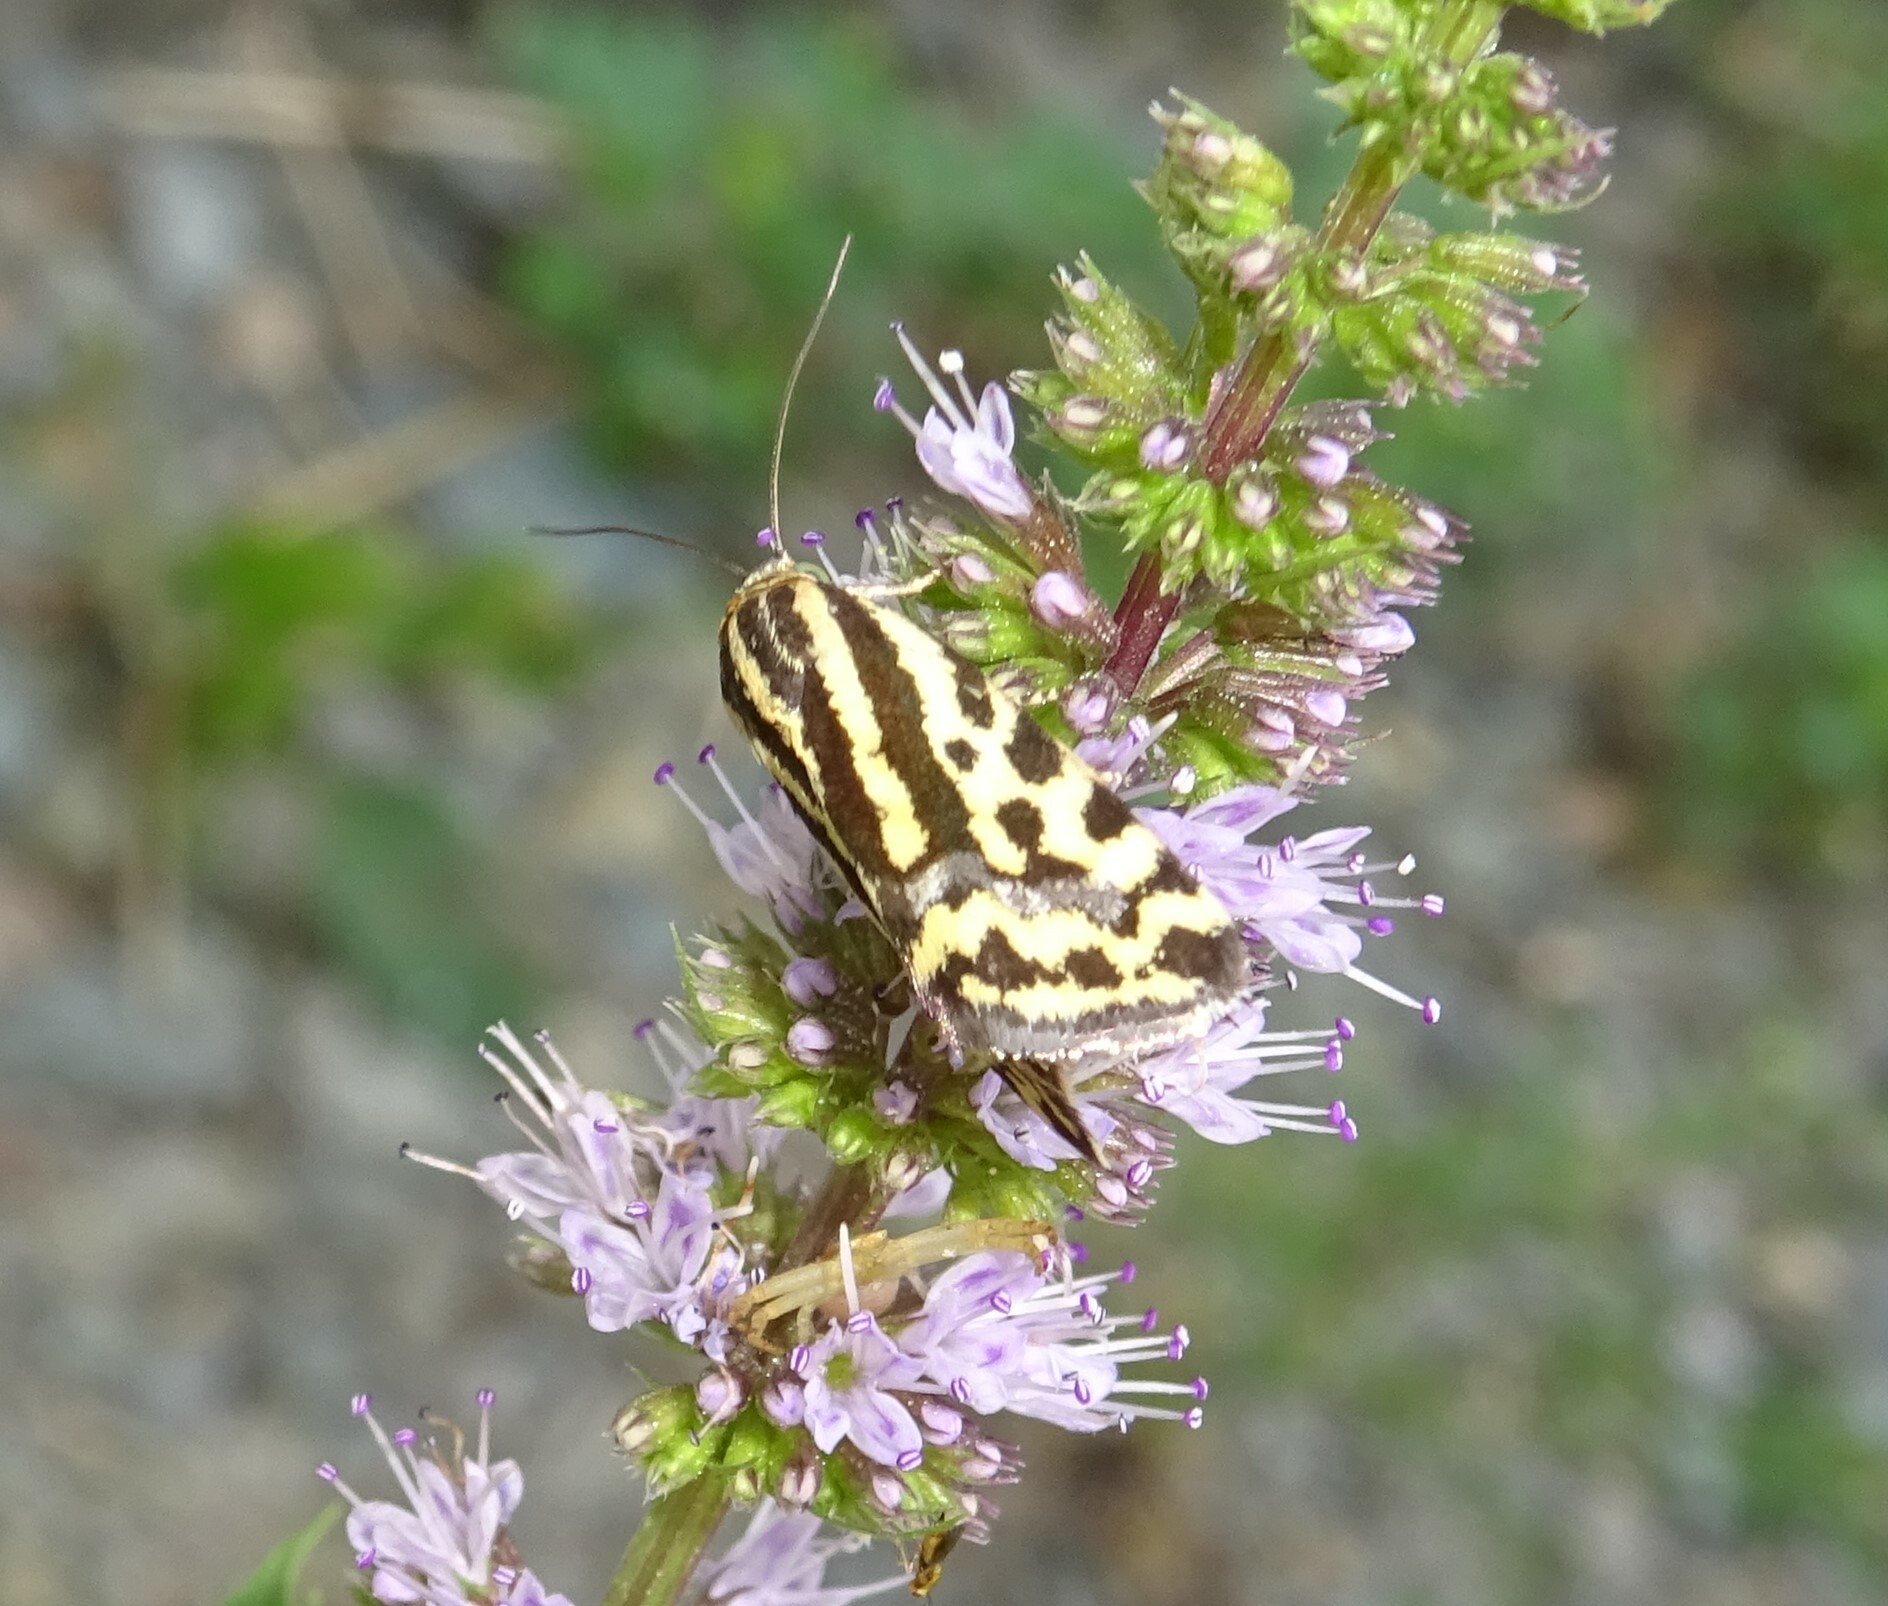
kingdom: Animalia
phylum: Arthropoda
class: Insecta
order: Lepidoptera
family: Noctuidae
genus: Acontia
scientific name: Acontia trabealis
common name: Spotted sulphur
